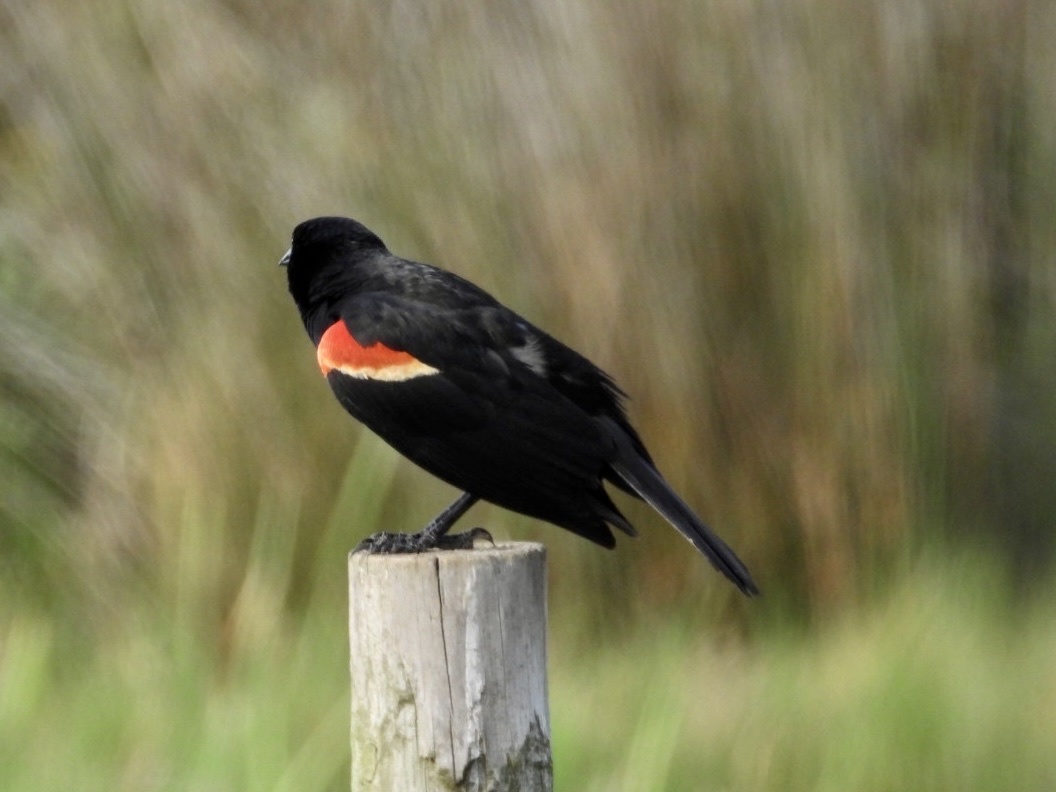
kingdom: Animalia
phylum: Chordata
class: Aves
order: Passeriformes
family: Icteridae
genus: Agelaius
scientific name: Agelaius phoeniceus
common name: Red-winged blackbird
